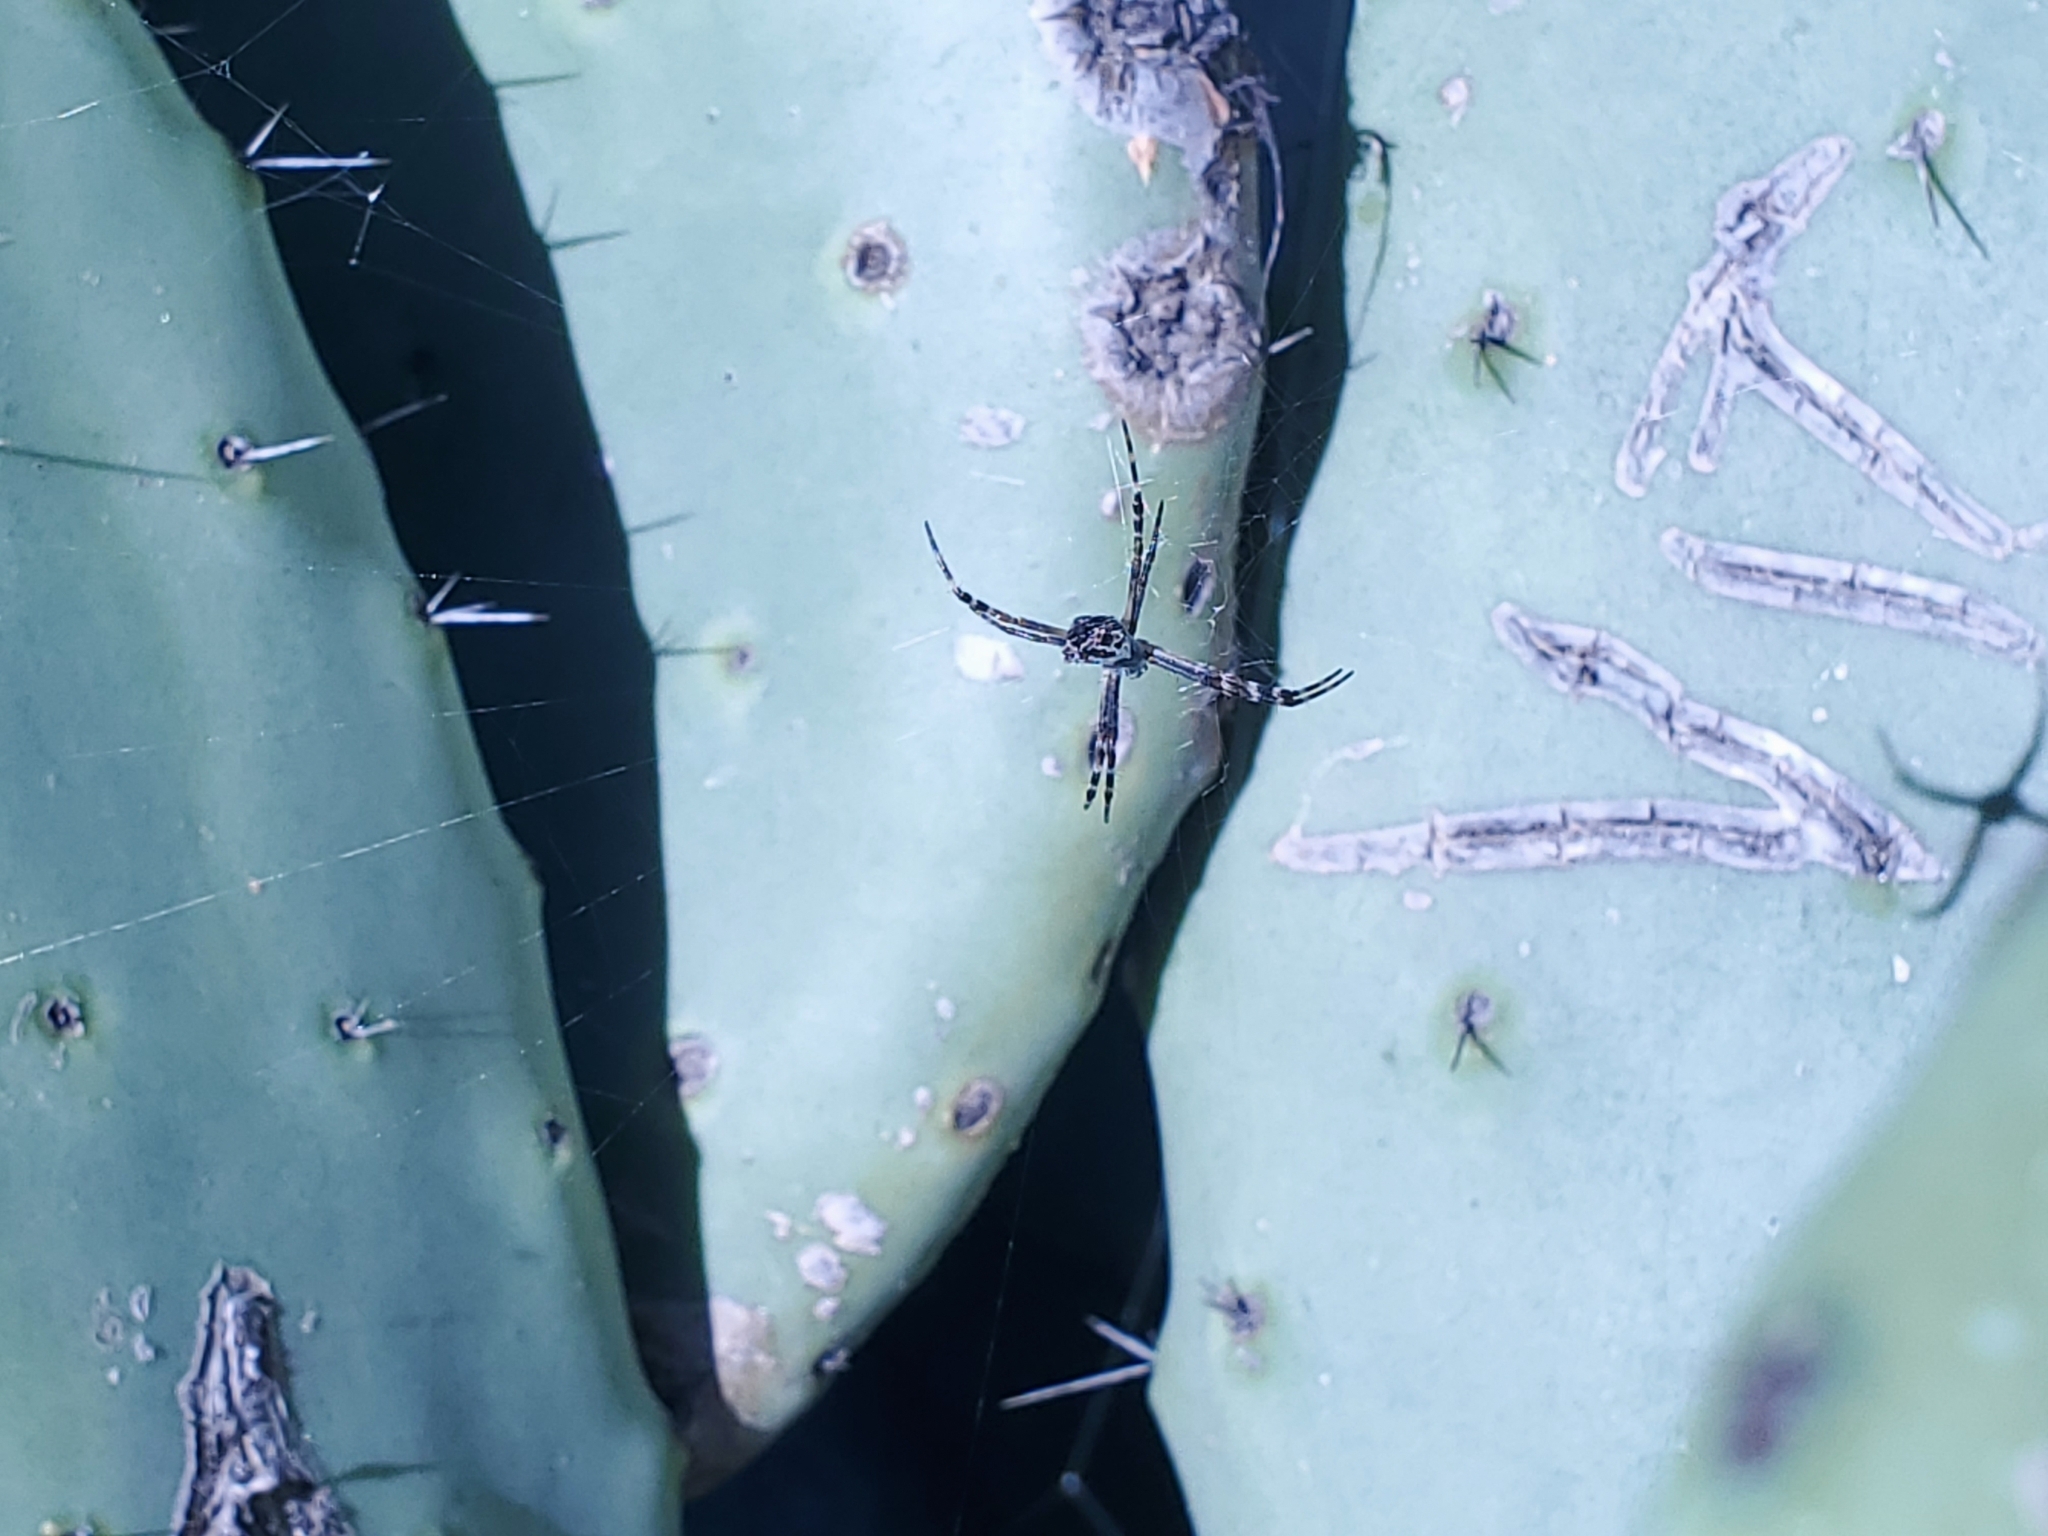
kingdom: Animalia
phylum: Arthropoda
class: Arachnida
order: Araneae
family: Araneidae
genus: Argiope
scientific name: Argiope argentata
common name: Orb weavers
